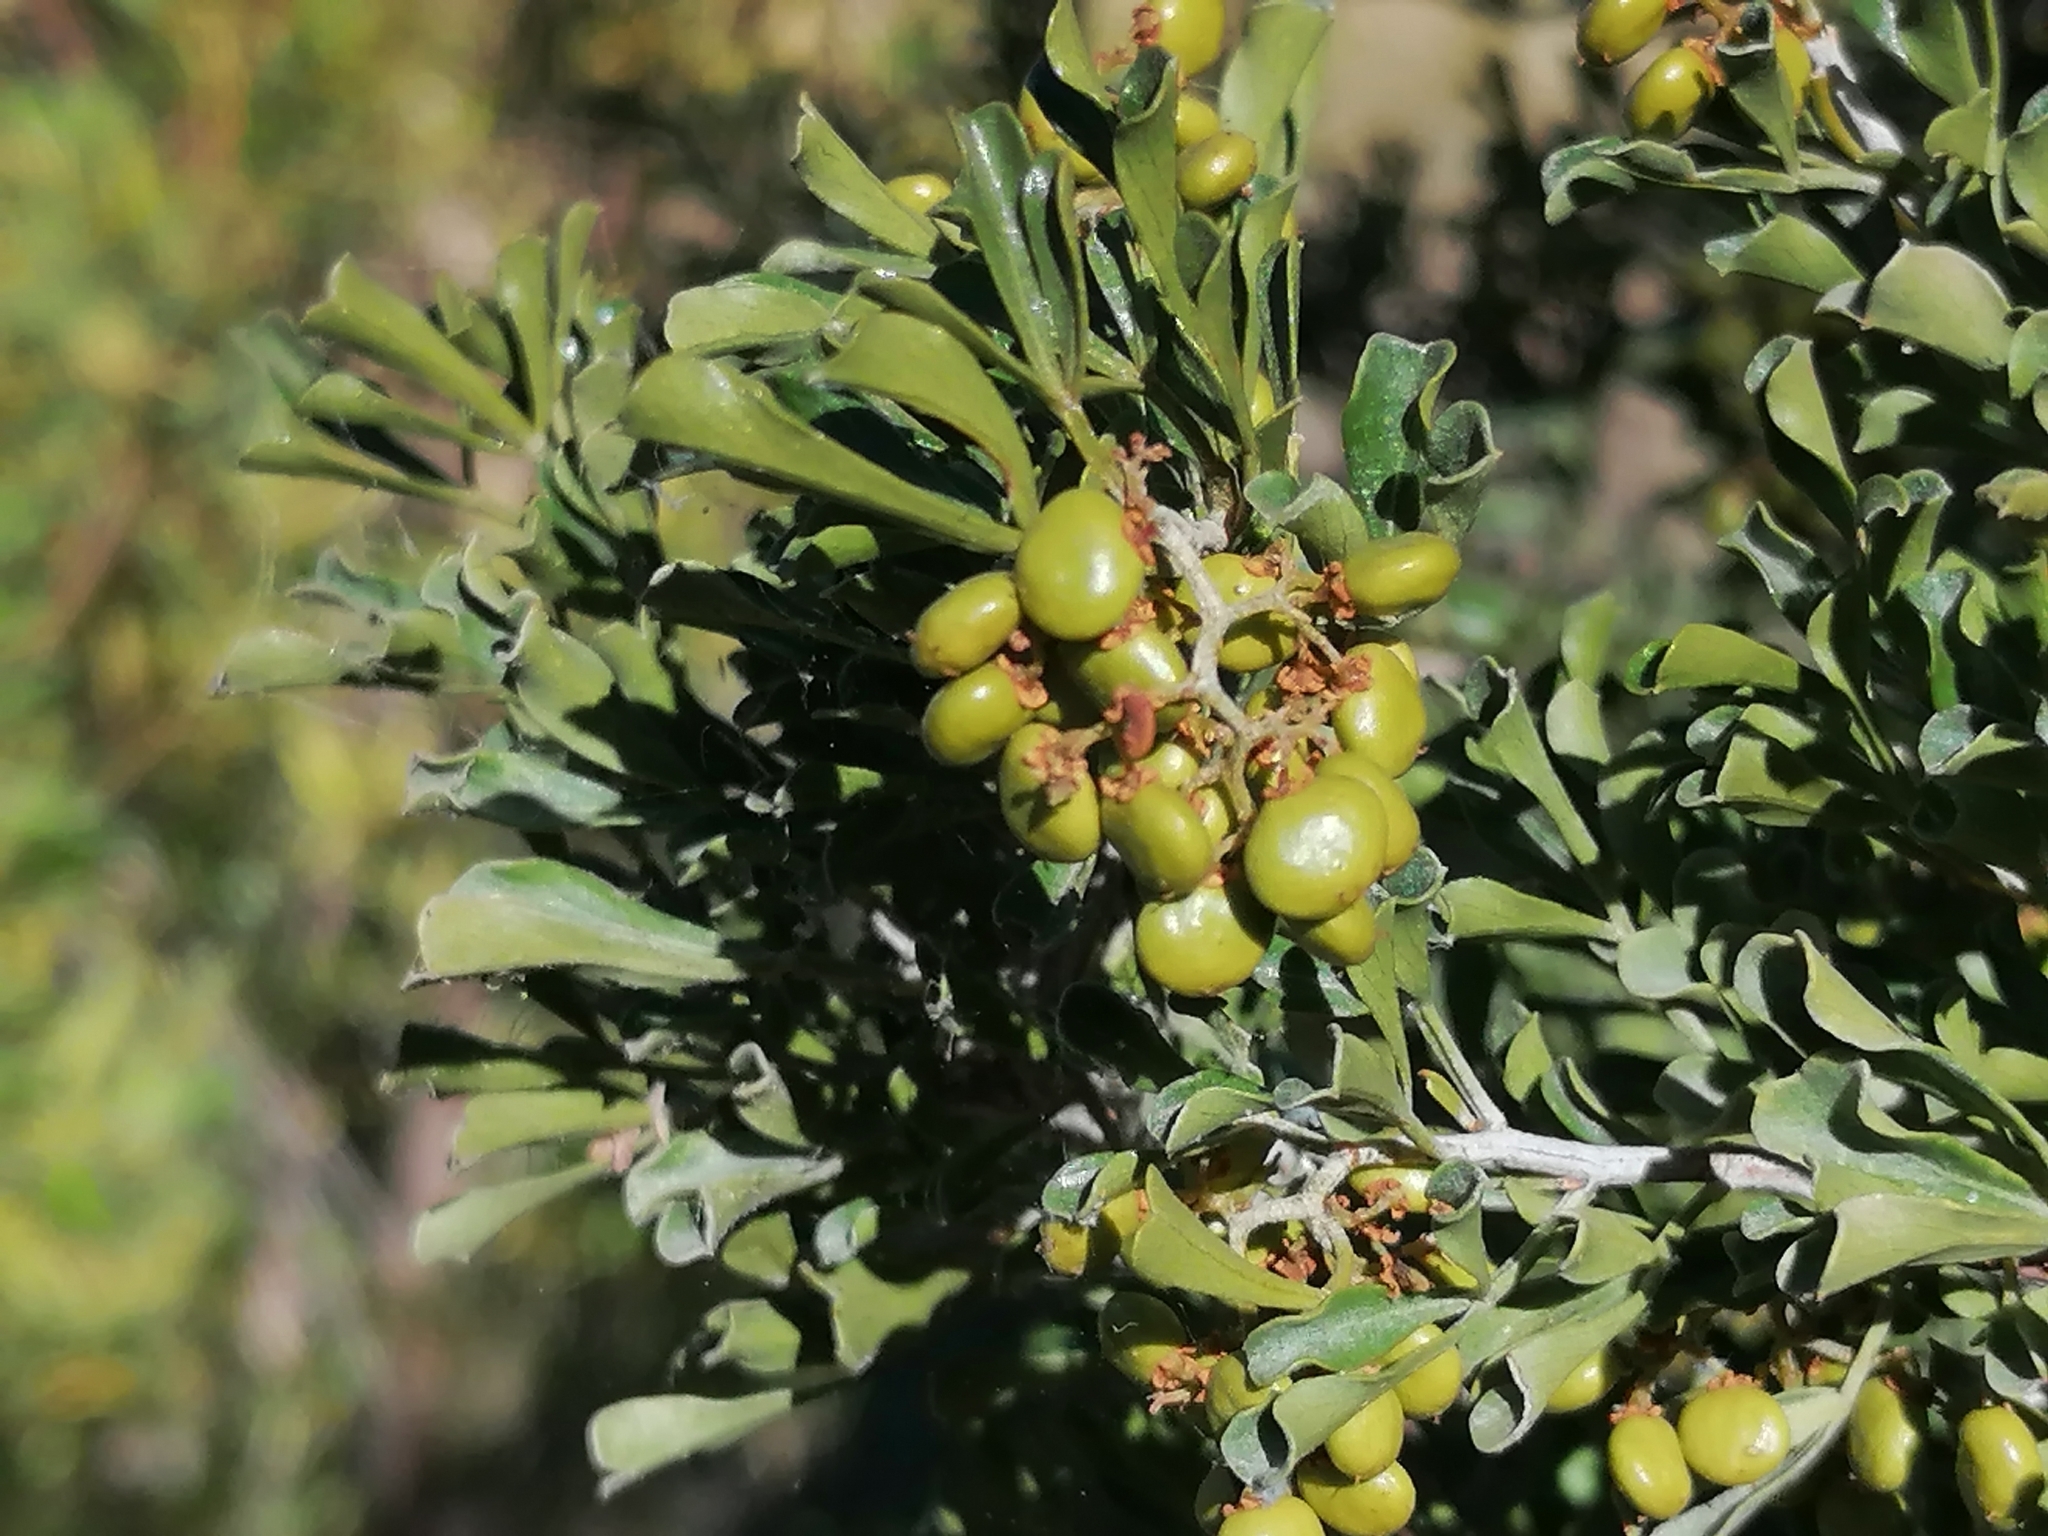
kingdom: Plantae
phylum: Tracheophyta
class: Magnoliopsida
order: Sapindales
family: Anacardiaceae
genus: Searsia
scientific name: Searsia burchellii
